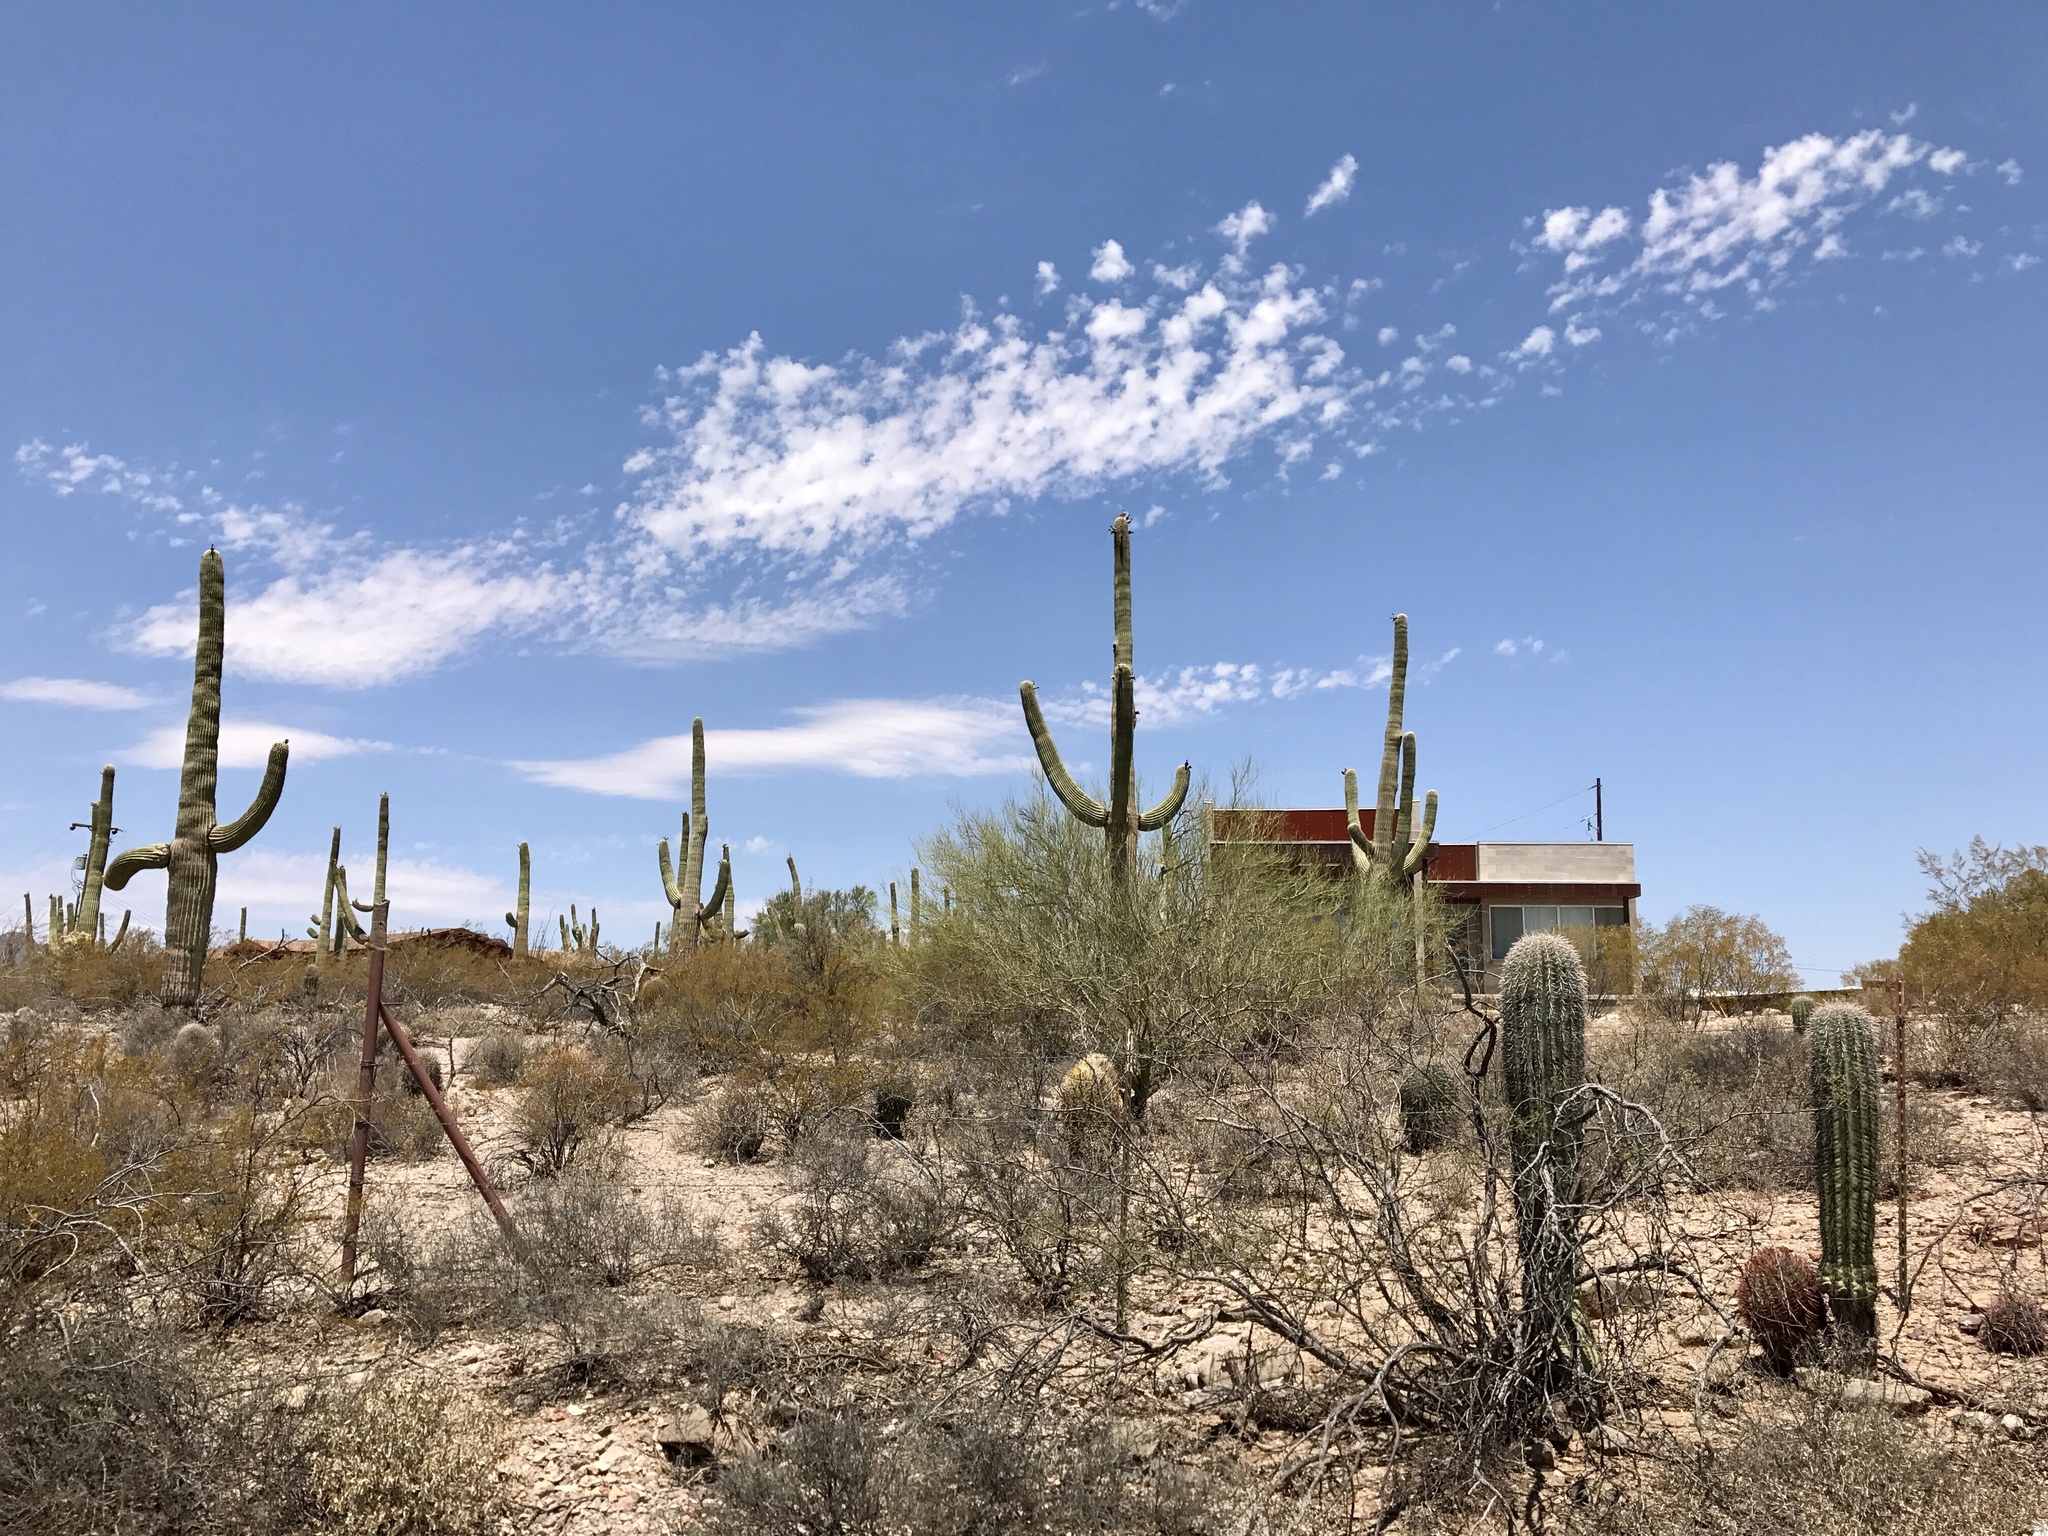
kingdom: Plantae
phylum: Tracheophyta
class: Magnoliopsida
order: Caryophyllales
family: Cactaceae
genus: Carnegiea
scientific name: Carnegiea gigantea
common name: Saguaro
